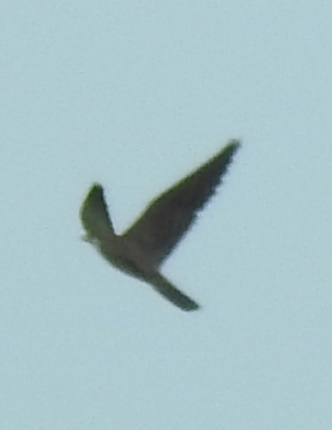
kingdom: Animalia
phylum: Chordata
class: Aves
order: Falconiformes
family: Falconidae
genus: Falco
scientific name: Falco peregrinus
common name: Peregrine falcon
